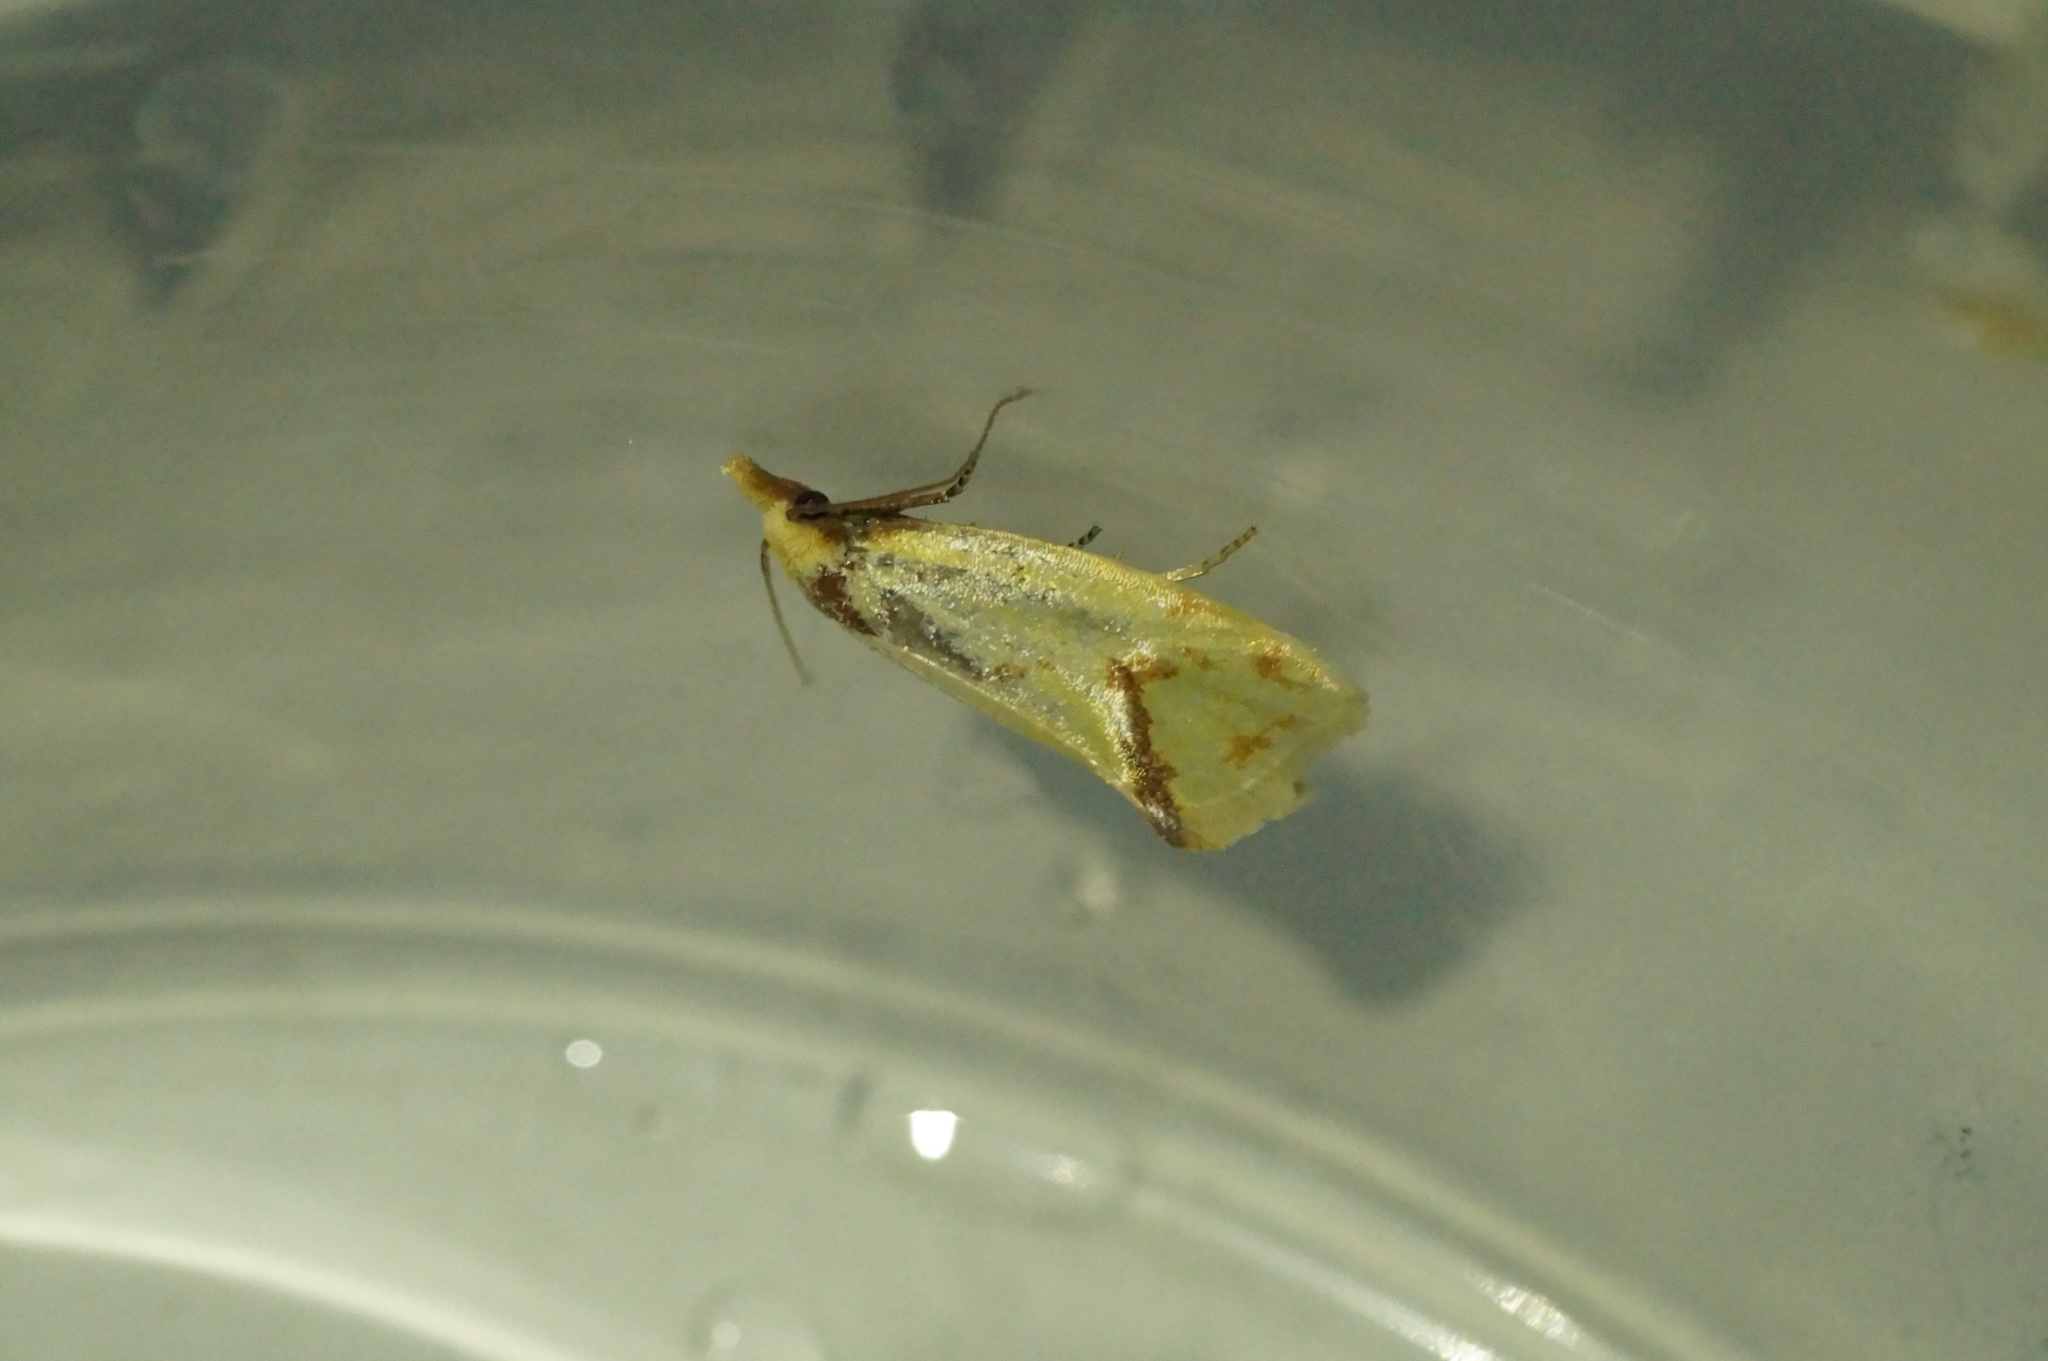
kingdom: Animalia
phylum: Arthropoda
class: Insecta
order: Lepidoptera
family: Tortricidae
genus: Agapeta
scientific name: Agapeta hamana
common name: Common yellow conch
